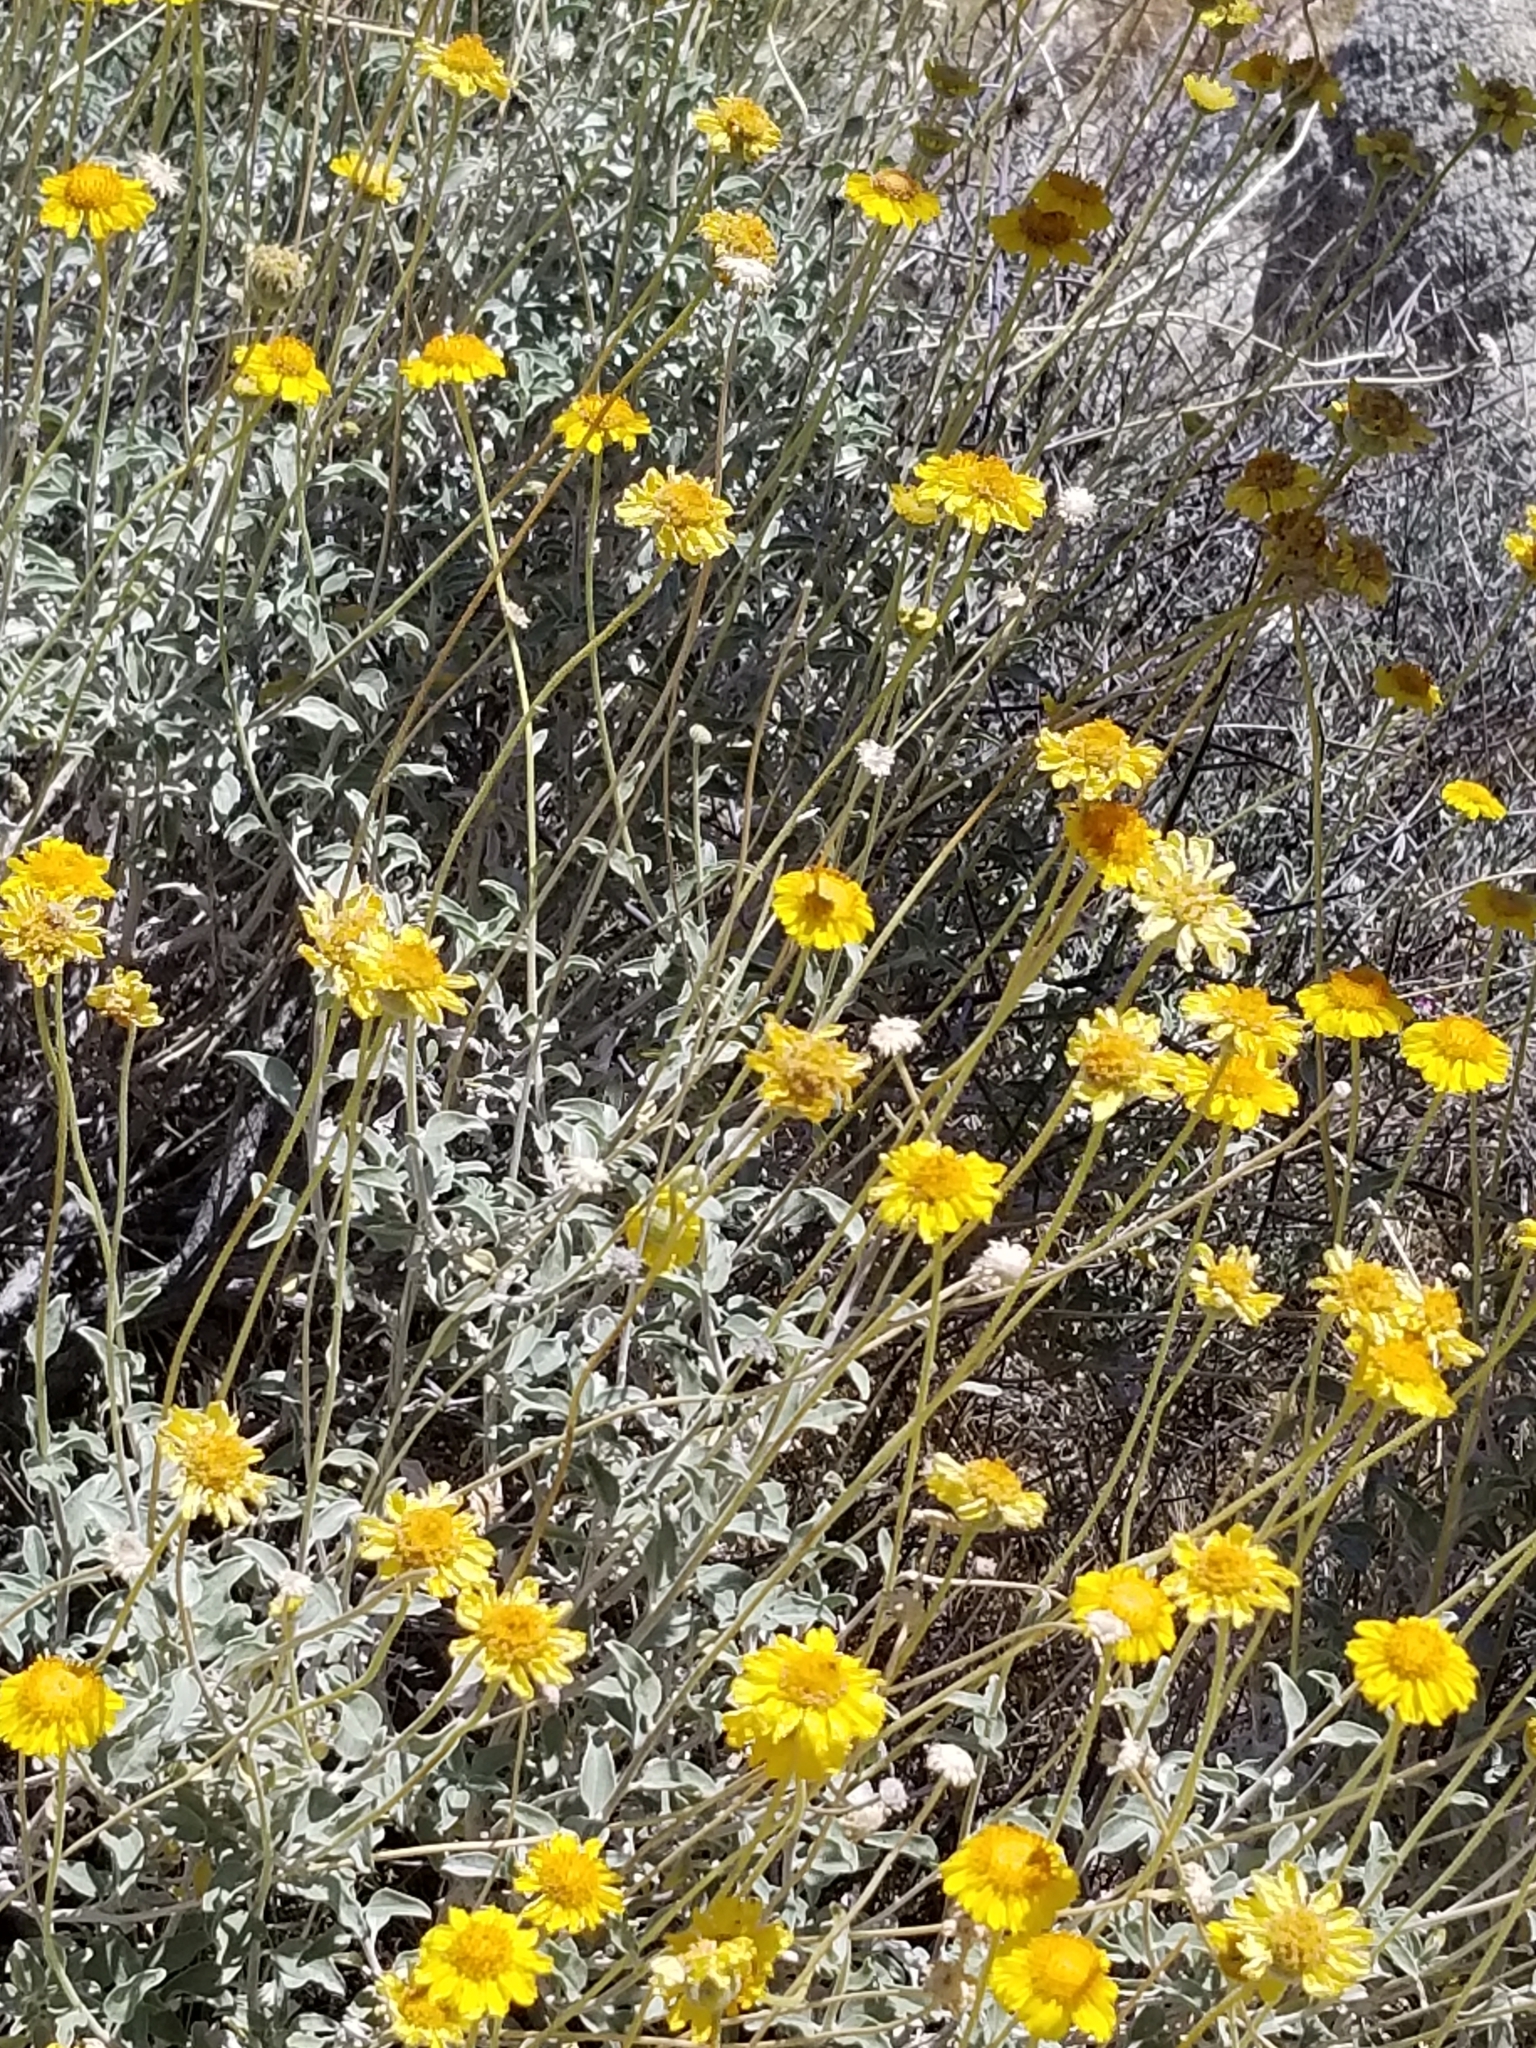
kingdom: Plantae
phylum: Tracheophyta
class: Magnoliopsida
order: Asterales
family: Asteraceae
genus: Encelia
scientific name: Encelia actoni
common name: Acton encelia
